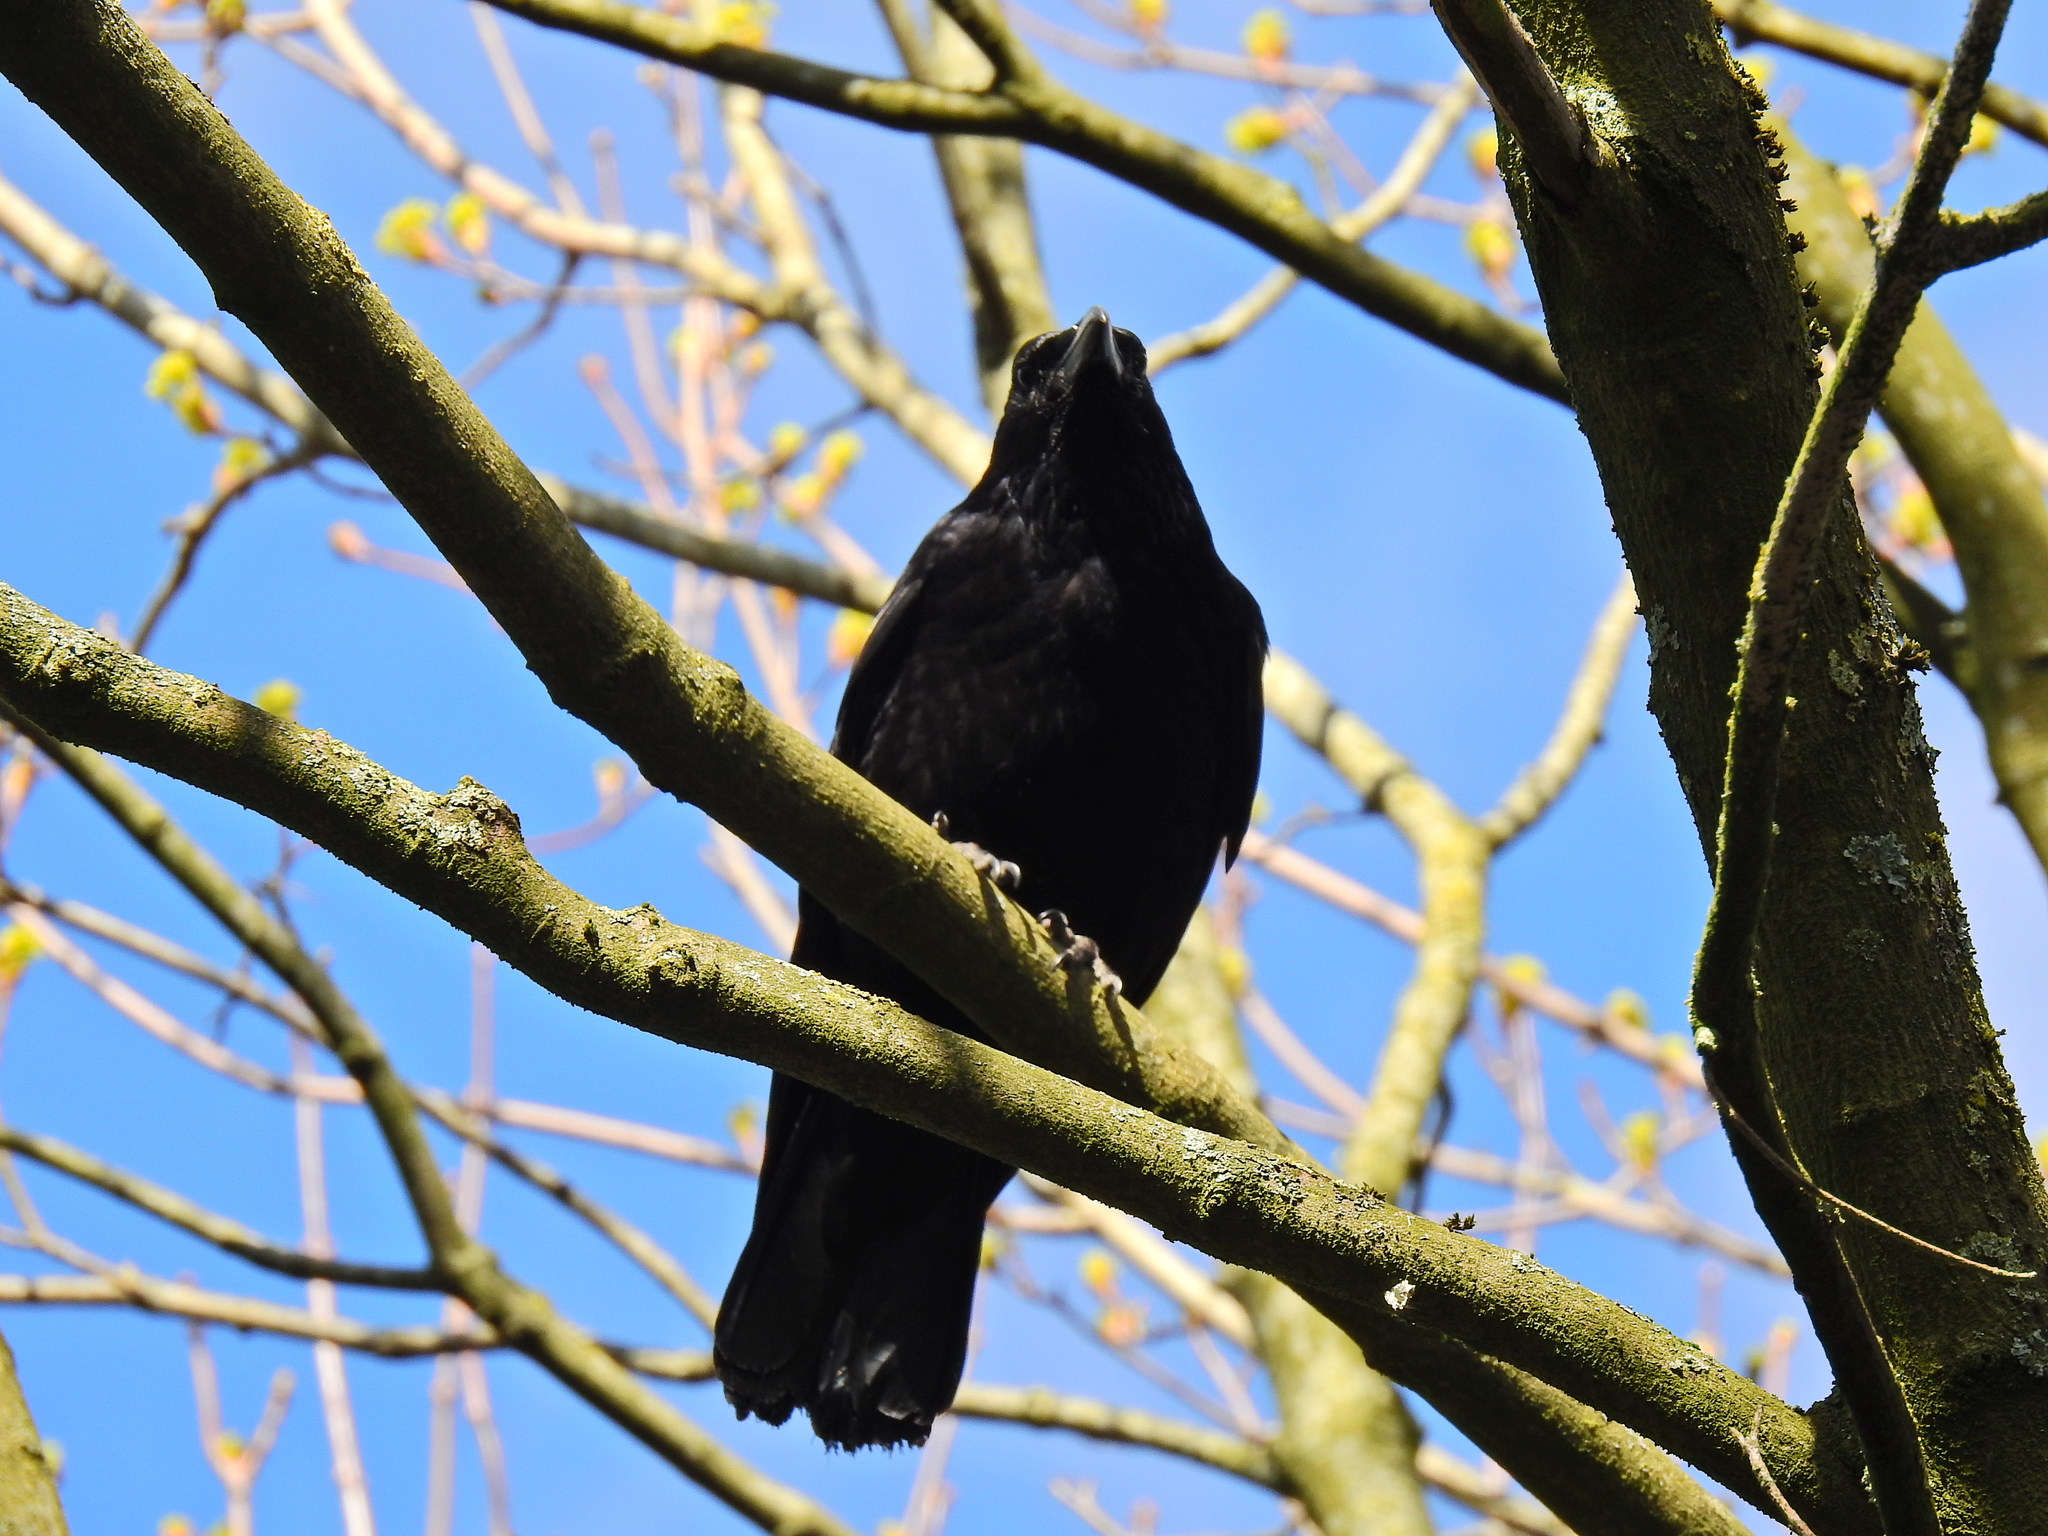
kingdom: Animalia
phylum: Chordata
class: Aves
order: Passeriformes
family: Corvidae
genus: Corvus
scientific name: Corvus corone
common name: Carrion crow
